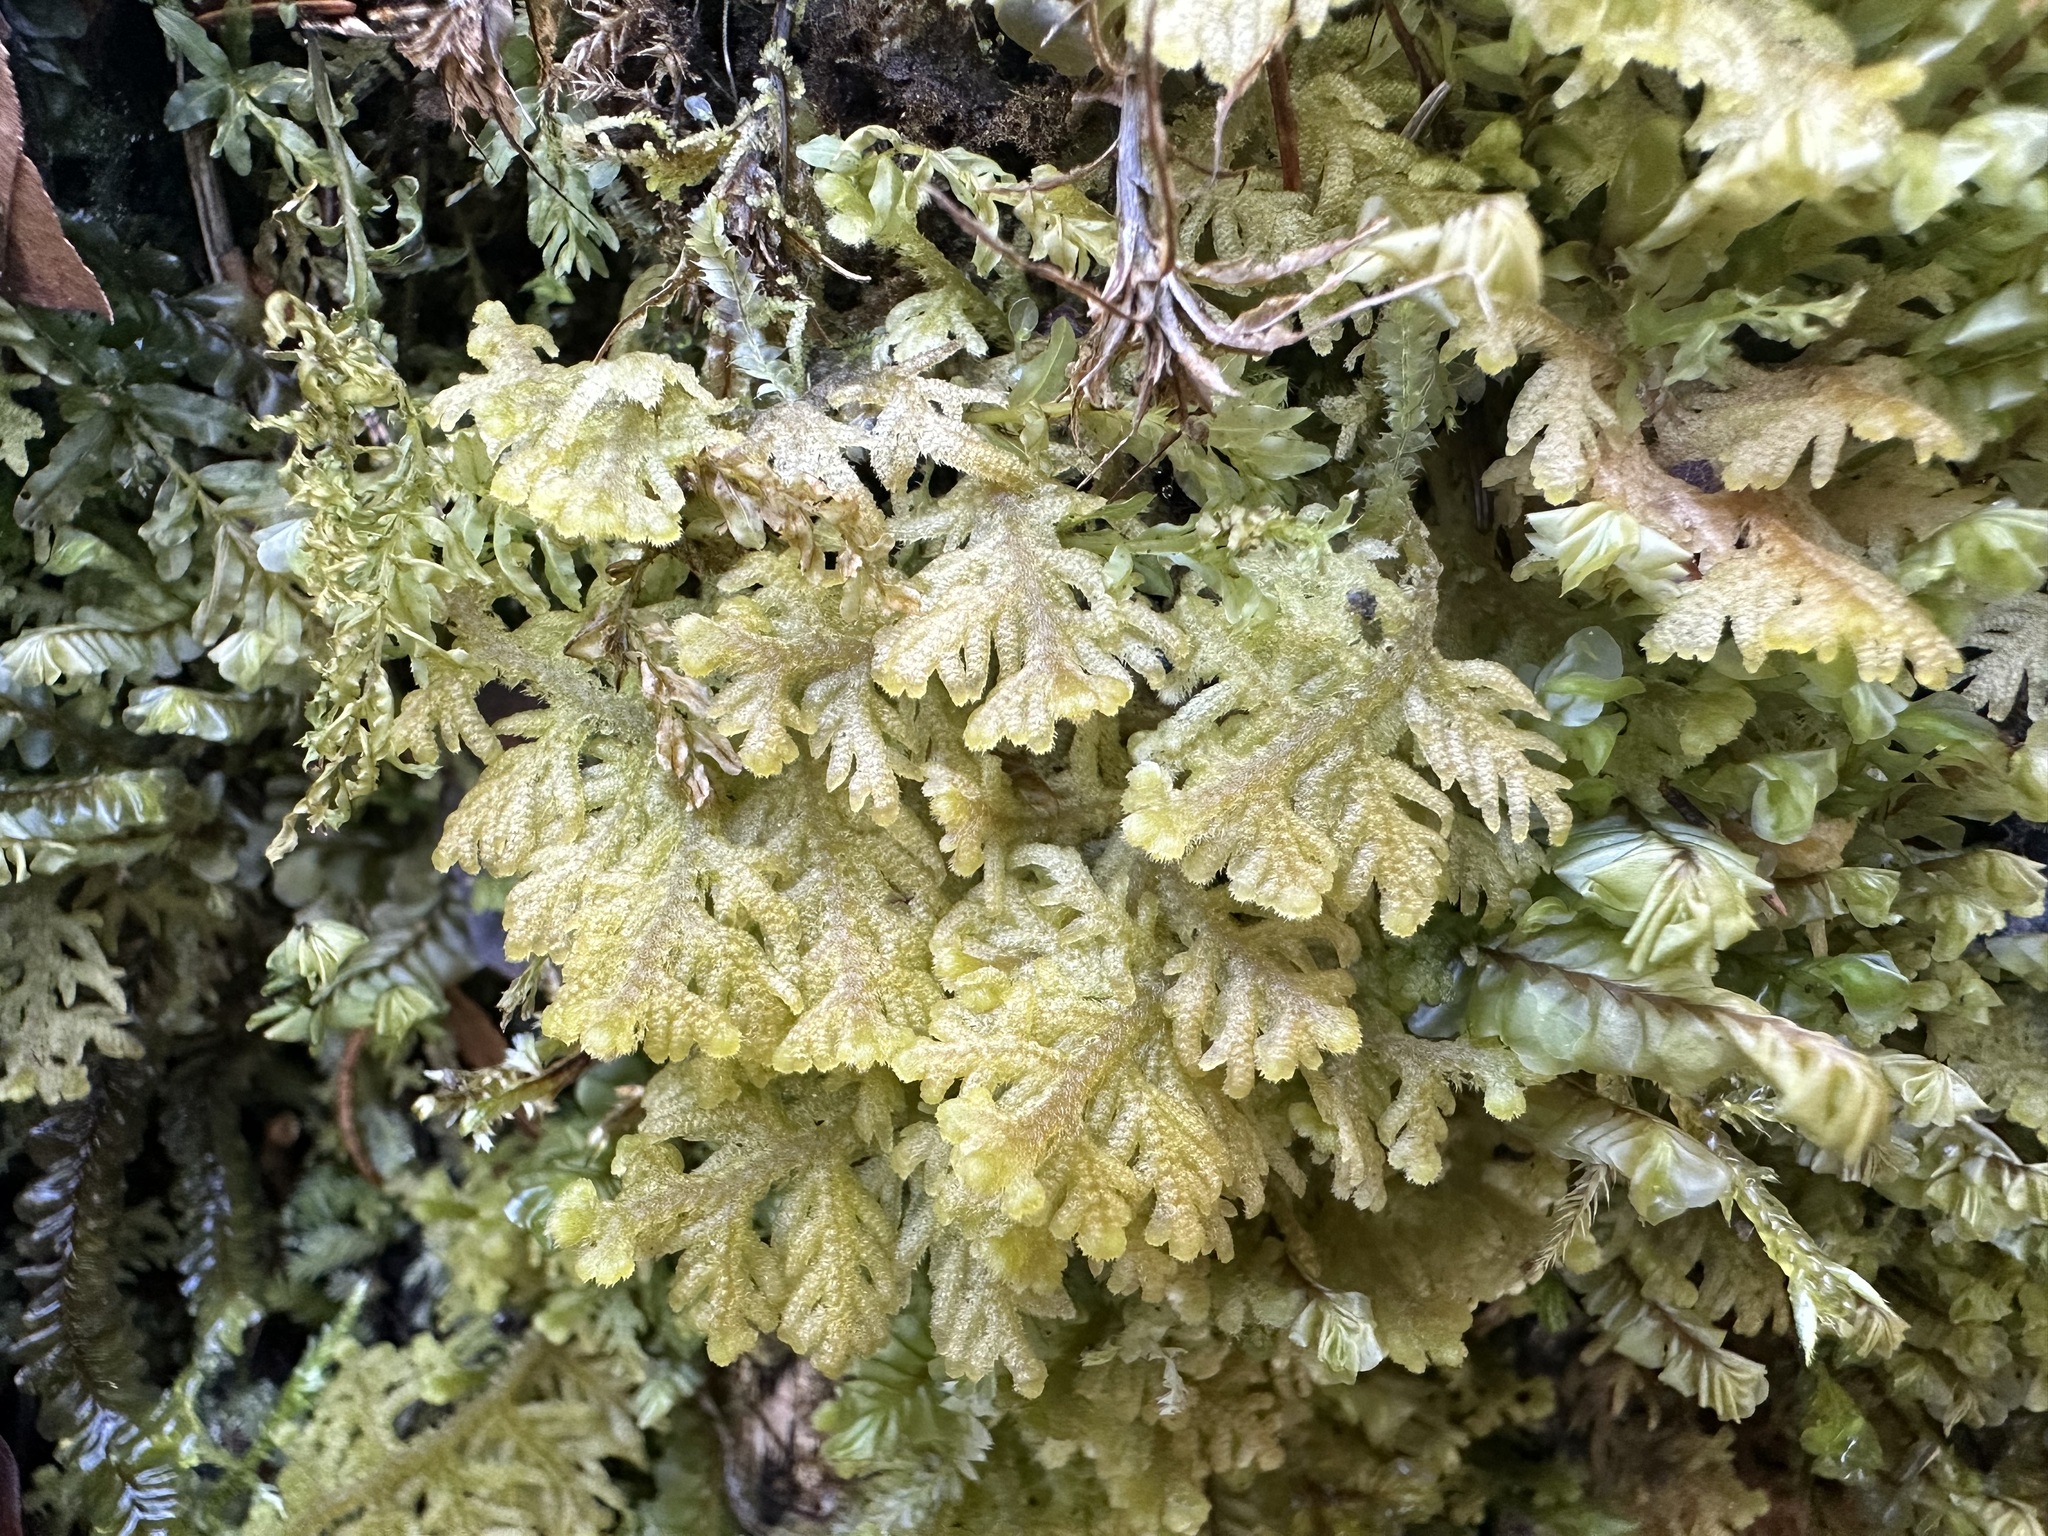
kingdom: Plantae
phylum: Marchantiophyta
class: Jungermanniopsida
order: Jungermanniales
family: Trichocoleaceae
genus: Trichocolea
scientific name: Trichocolea tomentella
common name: Woolly liverwort
